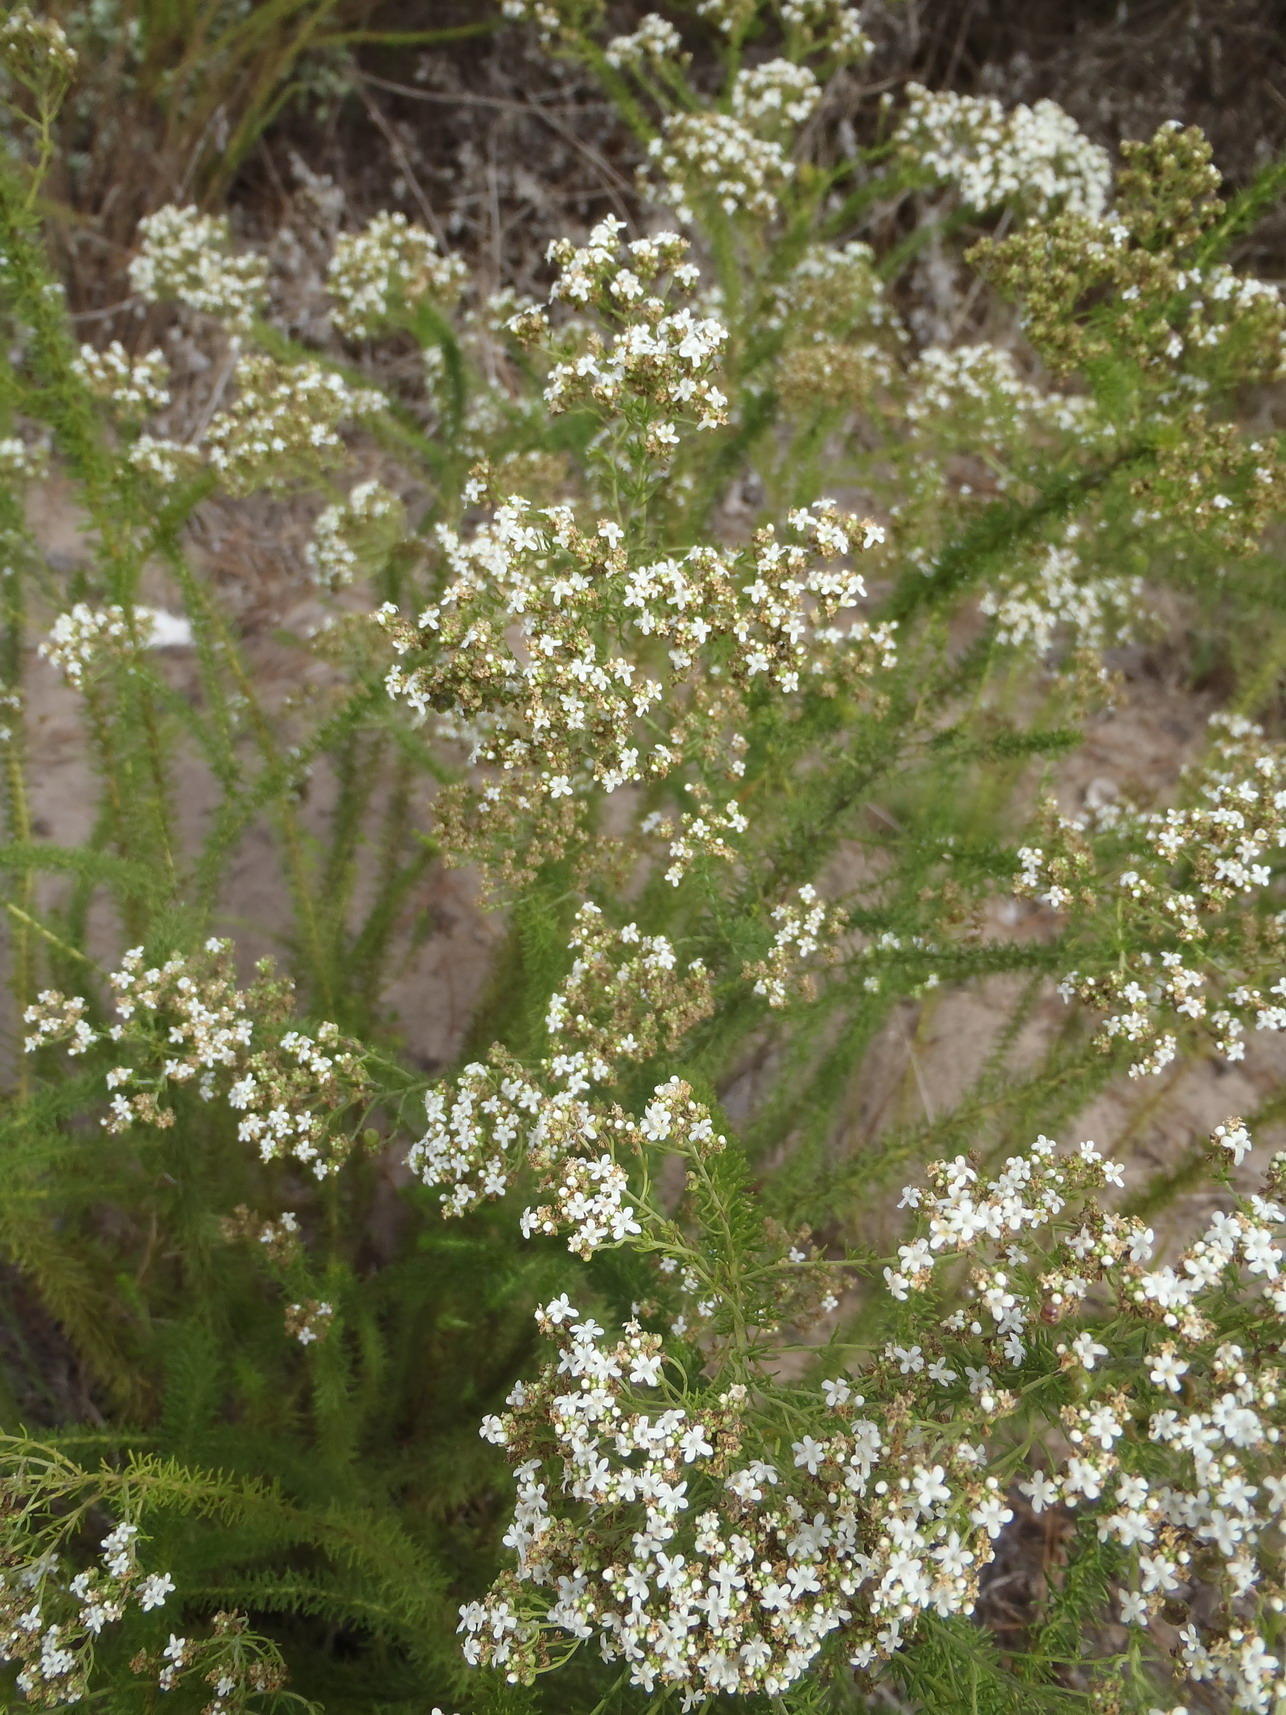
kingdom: Plantae
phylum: Tracheophyta
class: Magnoliopsida
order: Lamiales
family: Scrophulariaceae
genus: Selago
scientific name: Selago corymbosa
